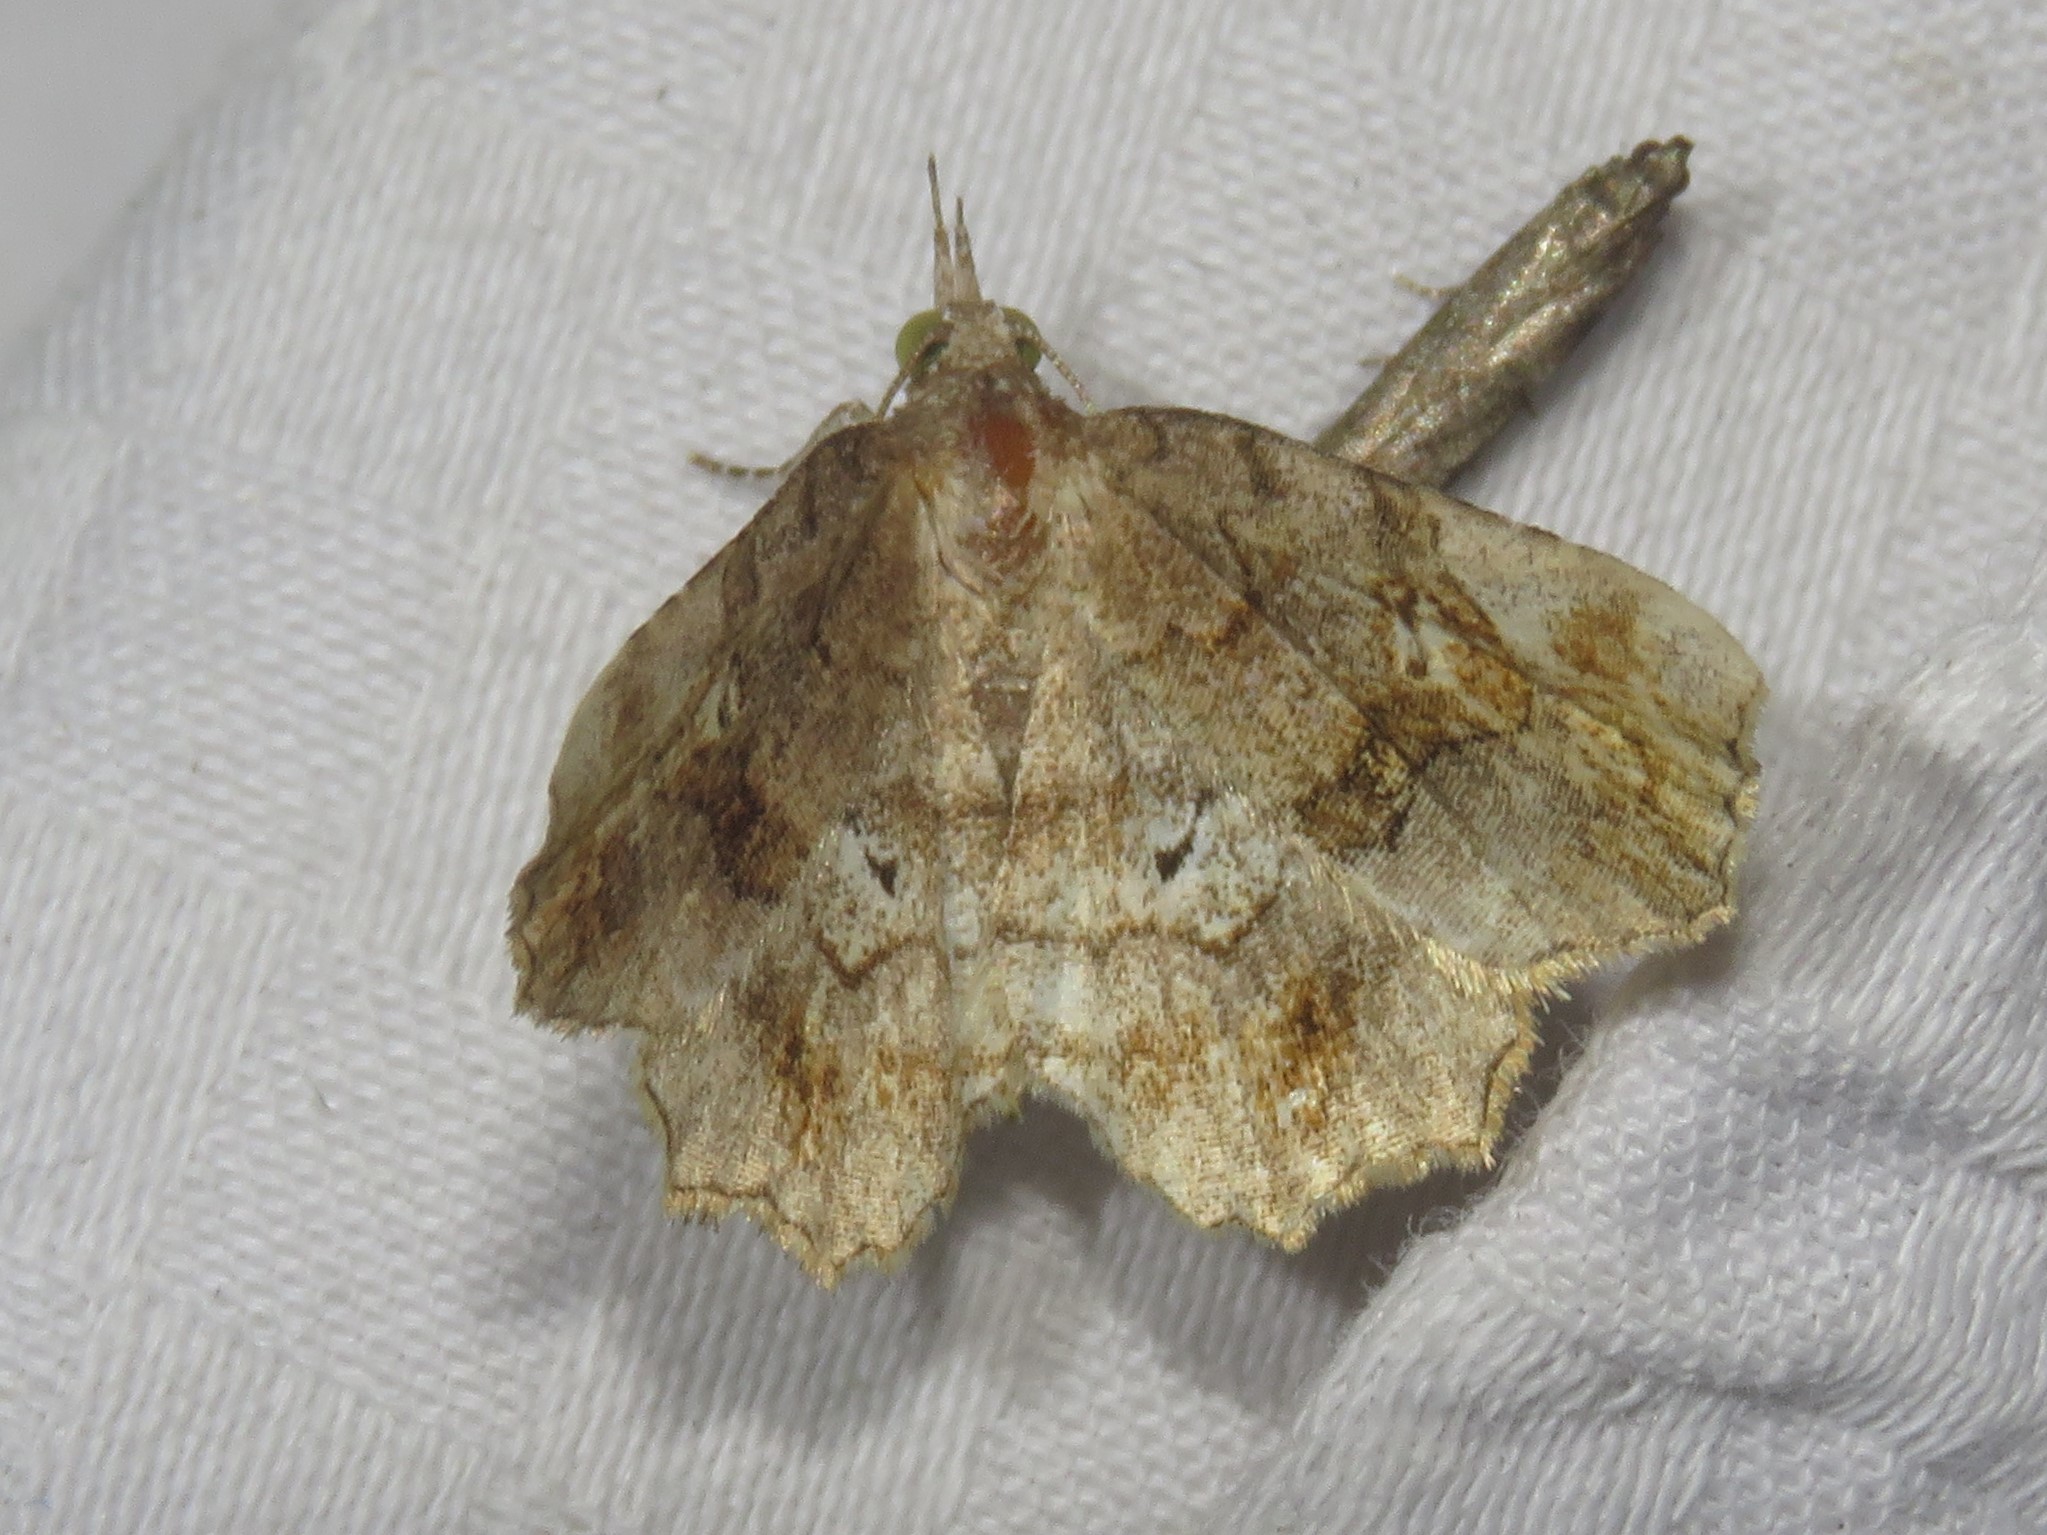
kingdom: Animalia
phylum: Arthropoda
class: Insecta
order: Lepidoptera
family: Erebidae
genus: Pangrapta
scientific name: Pangrapta decoralis
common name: Decorated owlet
